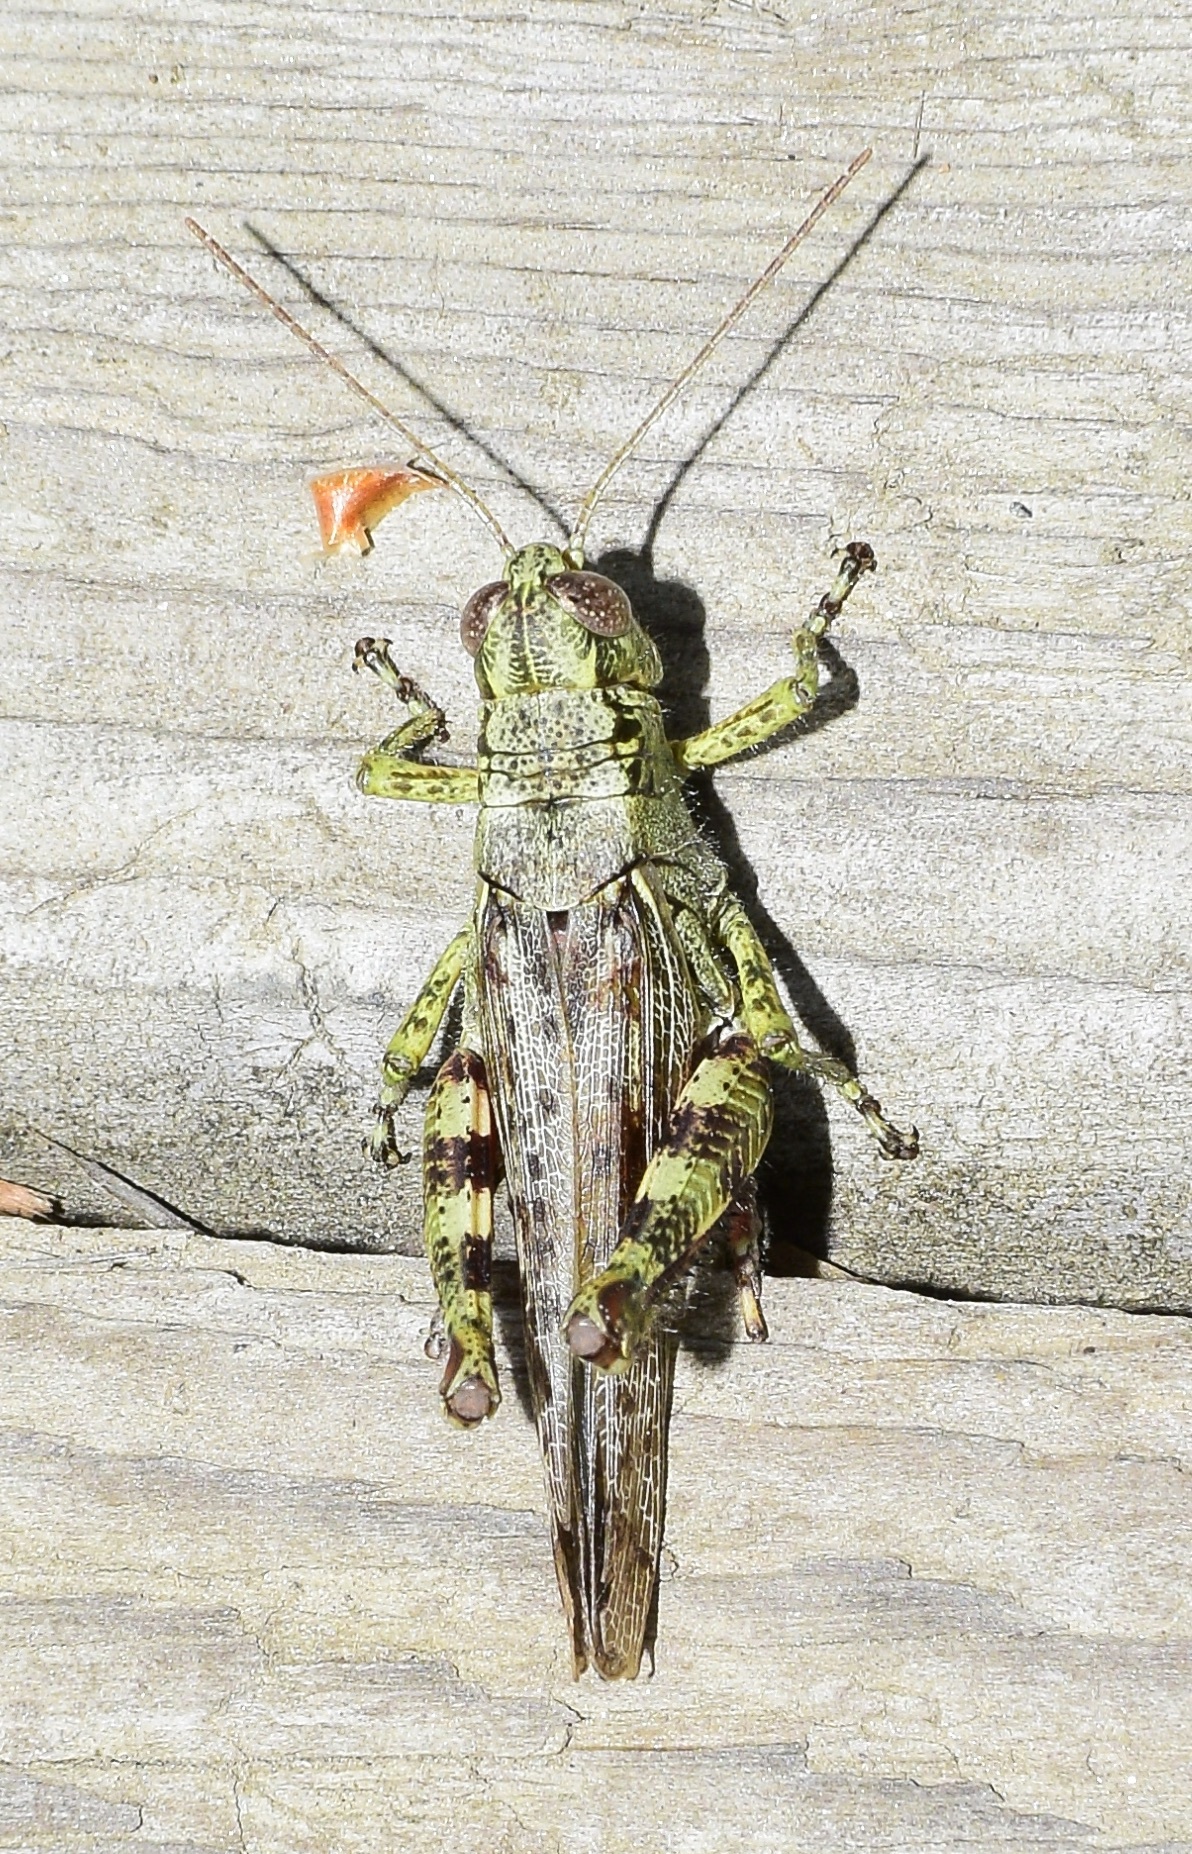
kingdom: Animalia
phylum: Arthropoda
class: Insecta
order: Orthoptera
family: Acrididae
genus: Melanoplus
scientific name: Melanoplus punctulatus
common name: Pine-tree spur-throat grasshopper
